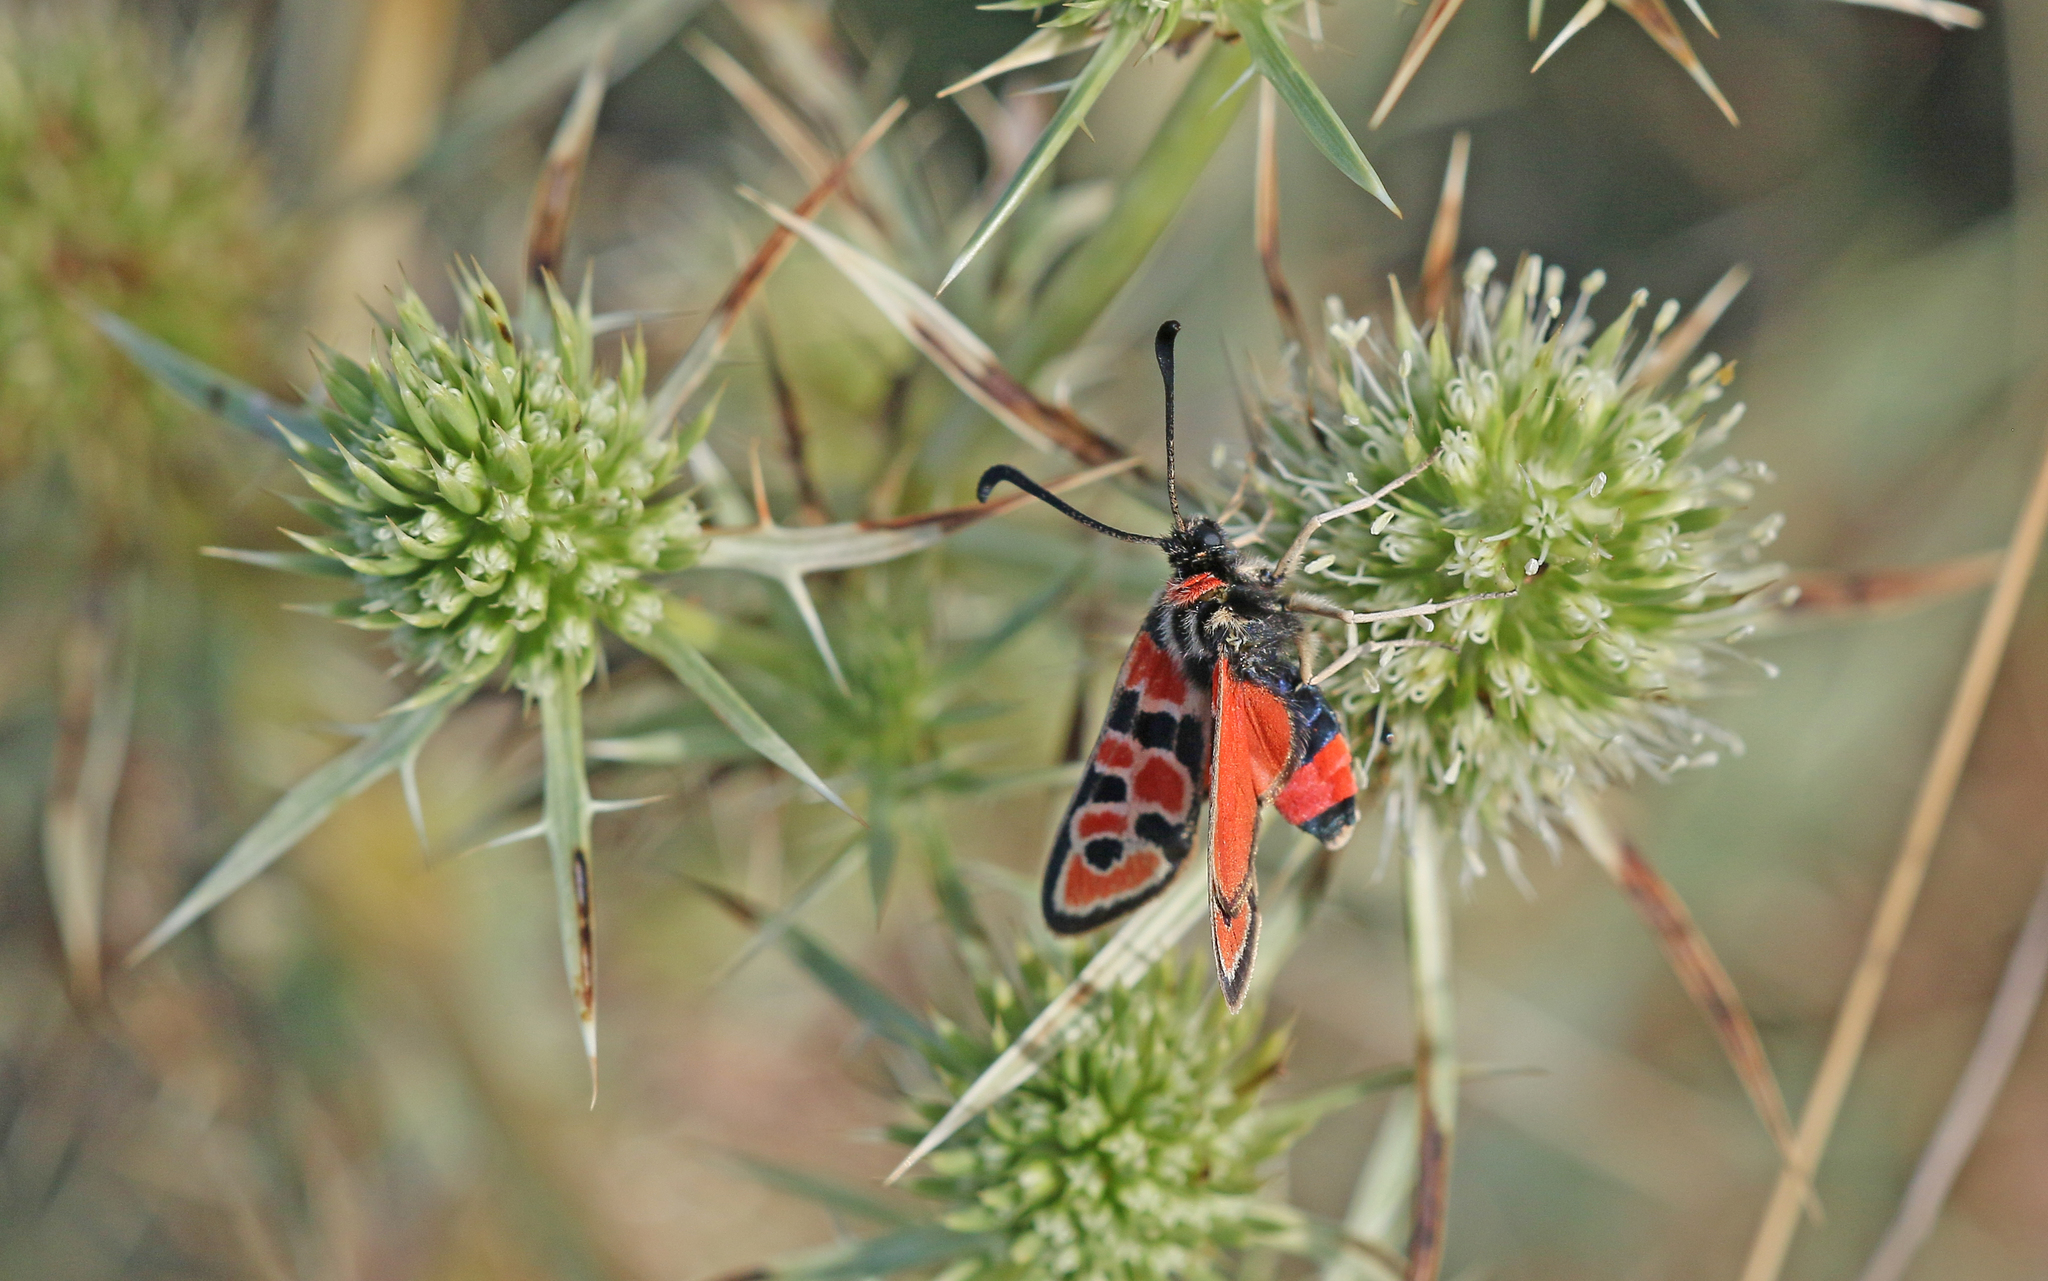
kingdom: Animalia
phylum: Arthropoda
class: Insecta
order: Lepidoptera
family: Zygaenidae
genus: Zygaena
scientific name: Zygaena fausta
